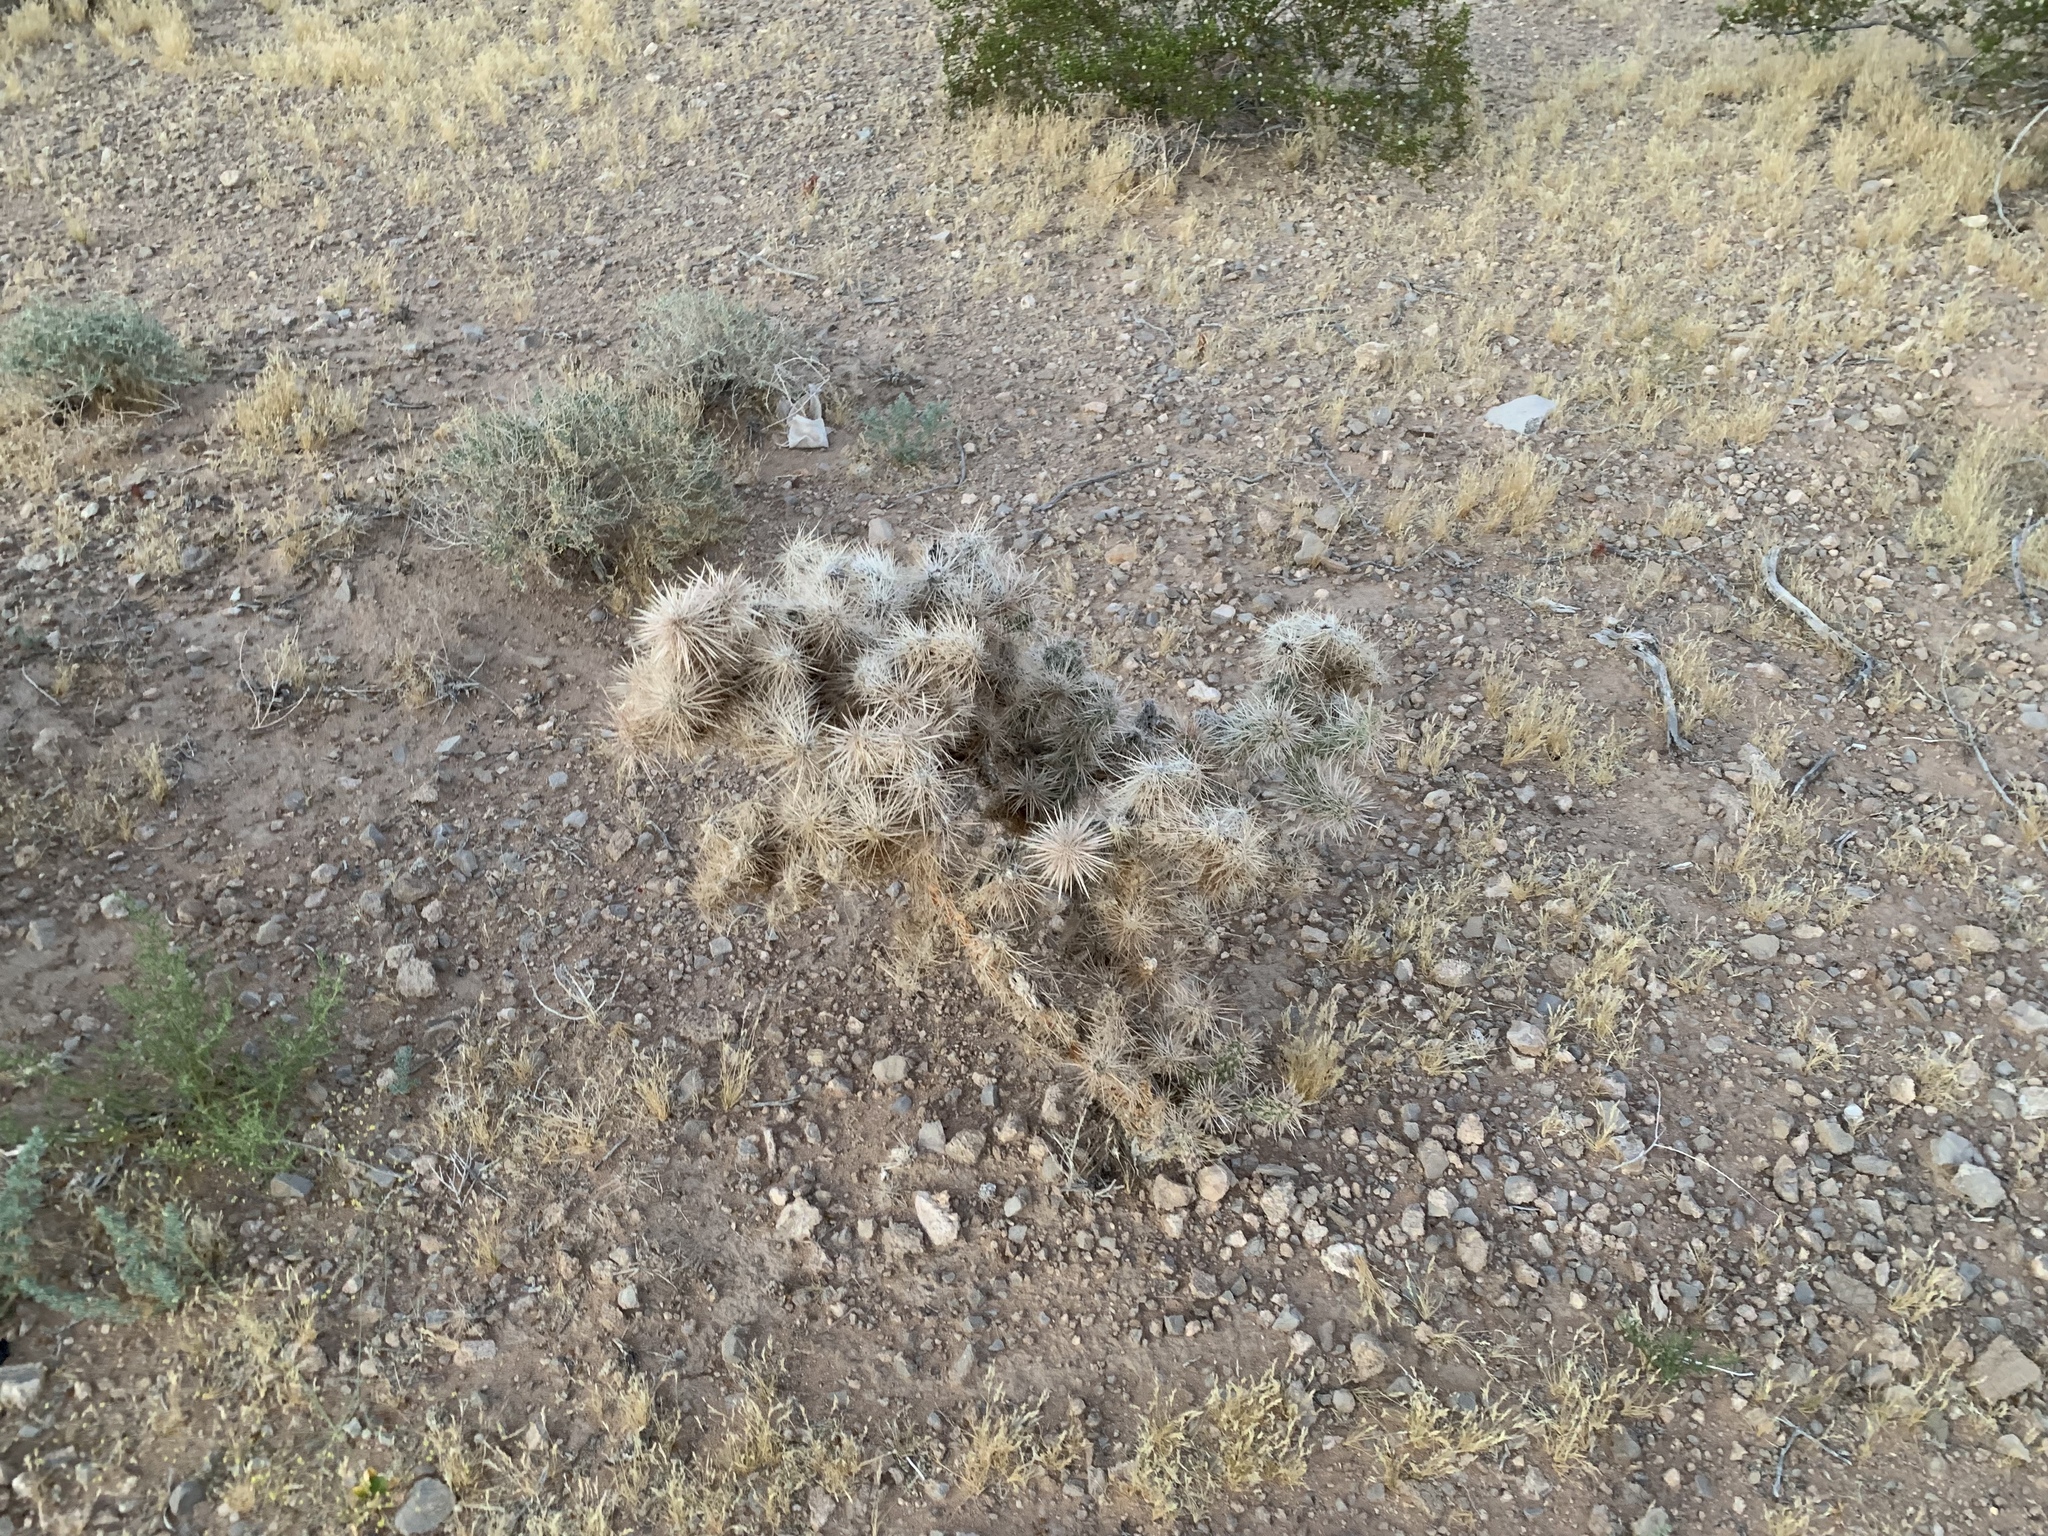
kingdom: Plantae
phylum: Tracheophyta
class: Magnoliopsida
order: Caryophyllales
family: Cactaceae
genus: Cylindropuntia
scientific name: Cylindropuntia echinocarpa
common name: Ground cholla
